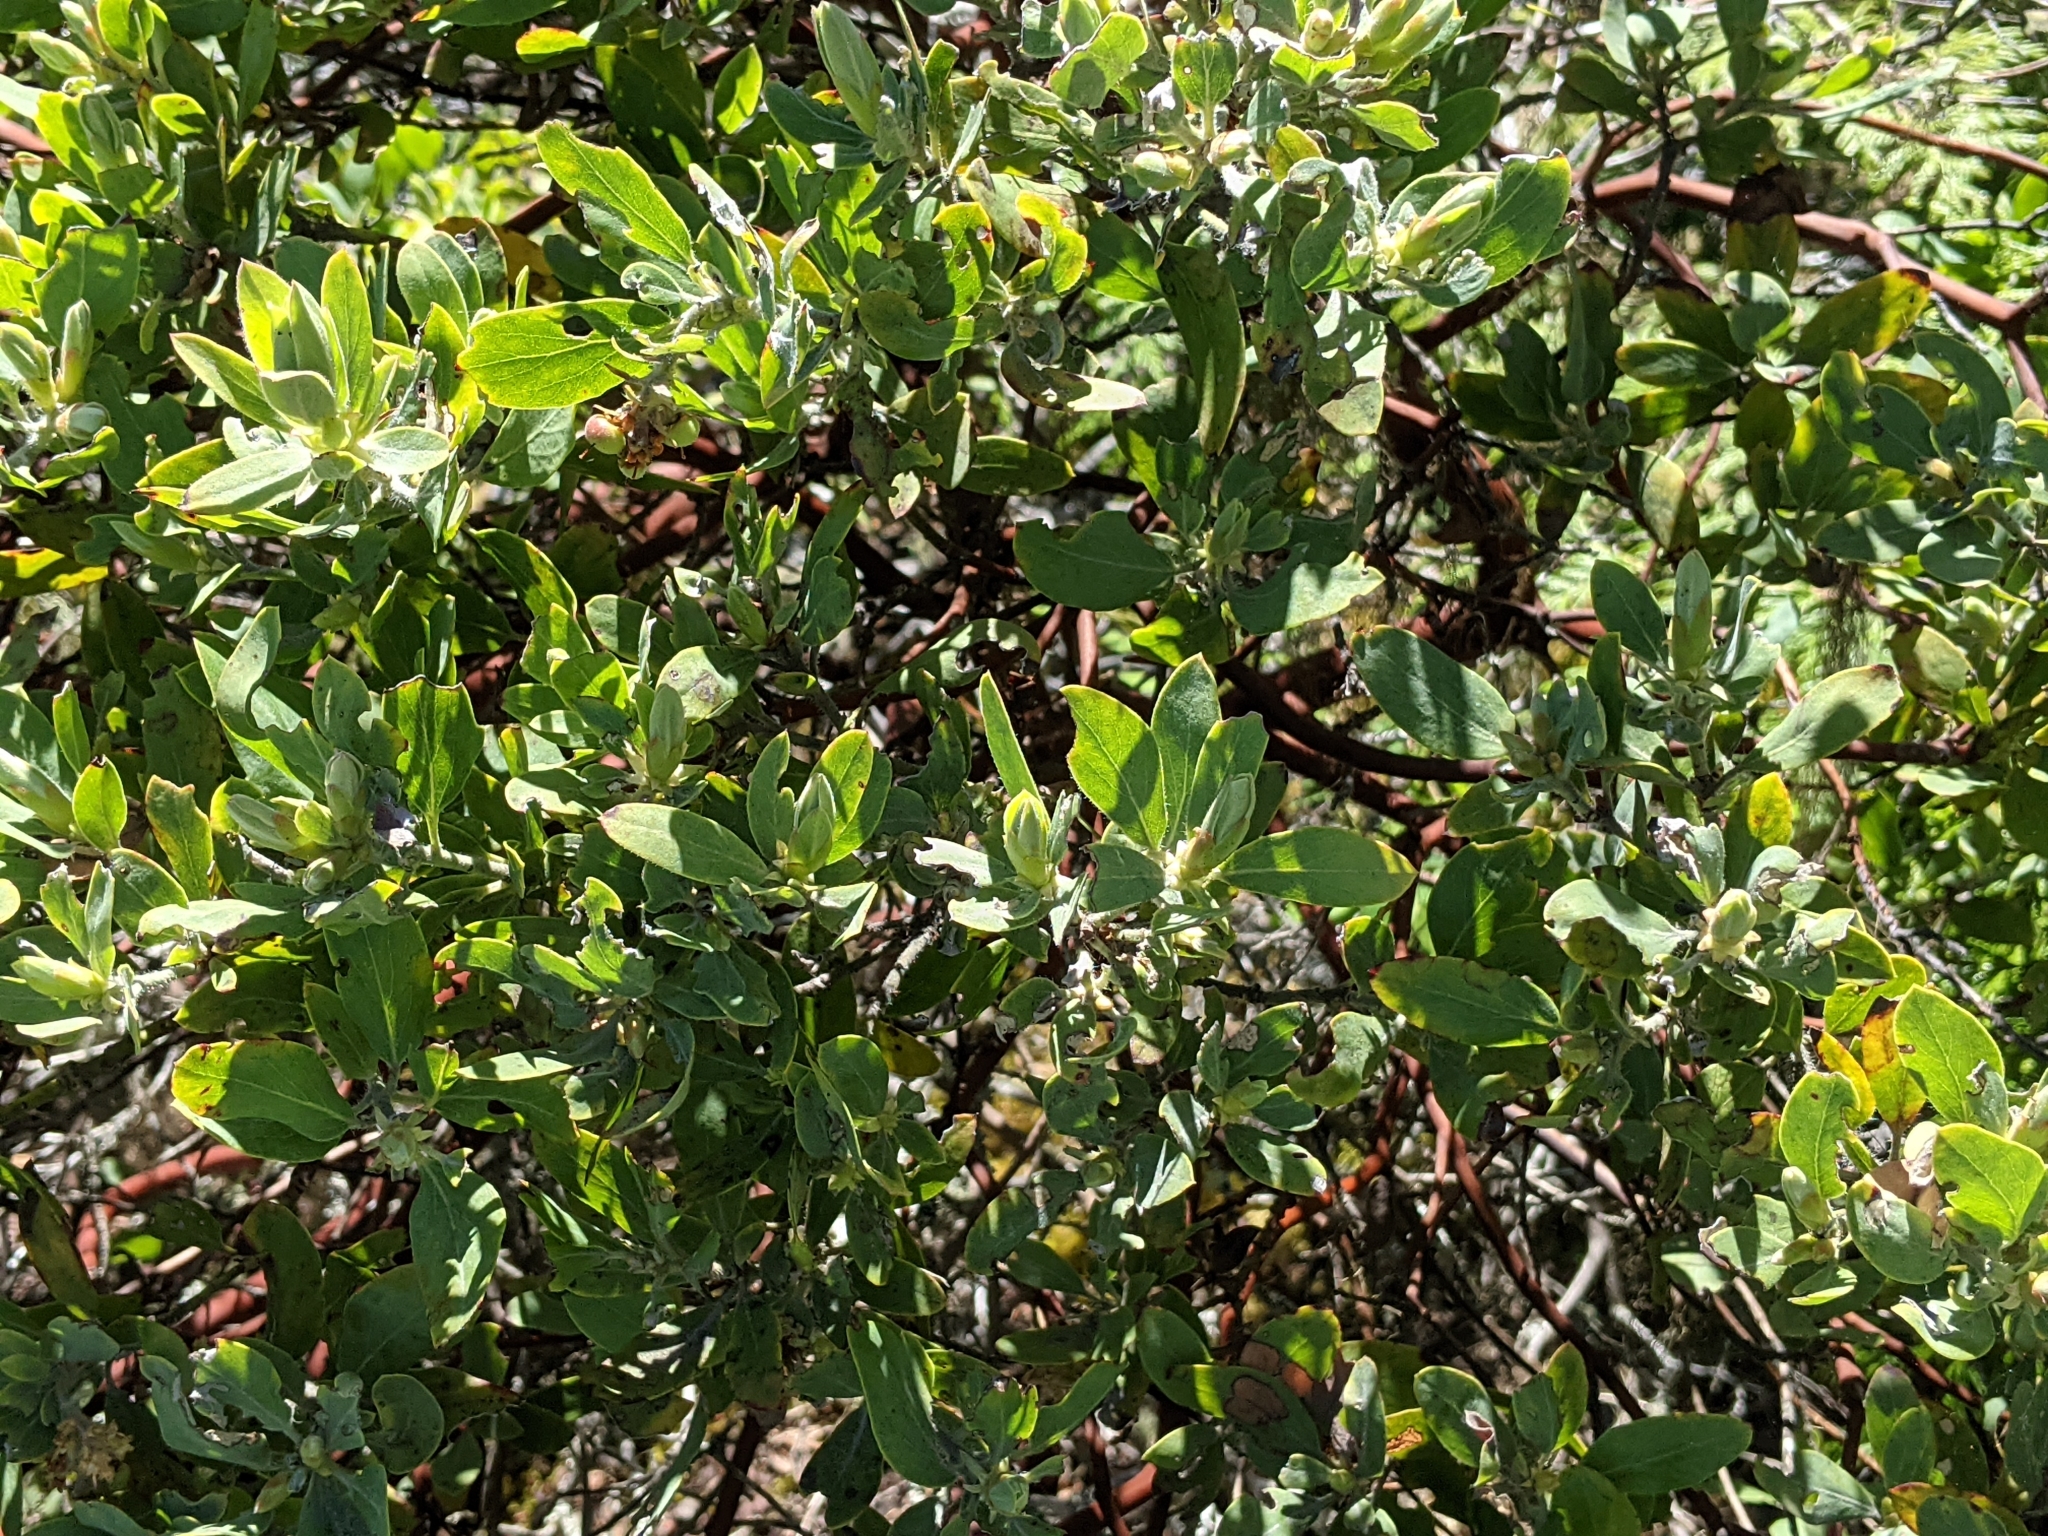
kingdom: Plantae
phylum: Tracheophyta
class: Magnoliopsida
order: Ericales
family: Ericaceae
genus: Arctostaphylos
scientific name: Arctostaphylos columbiana
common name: Bristly bearberry
